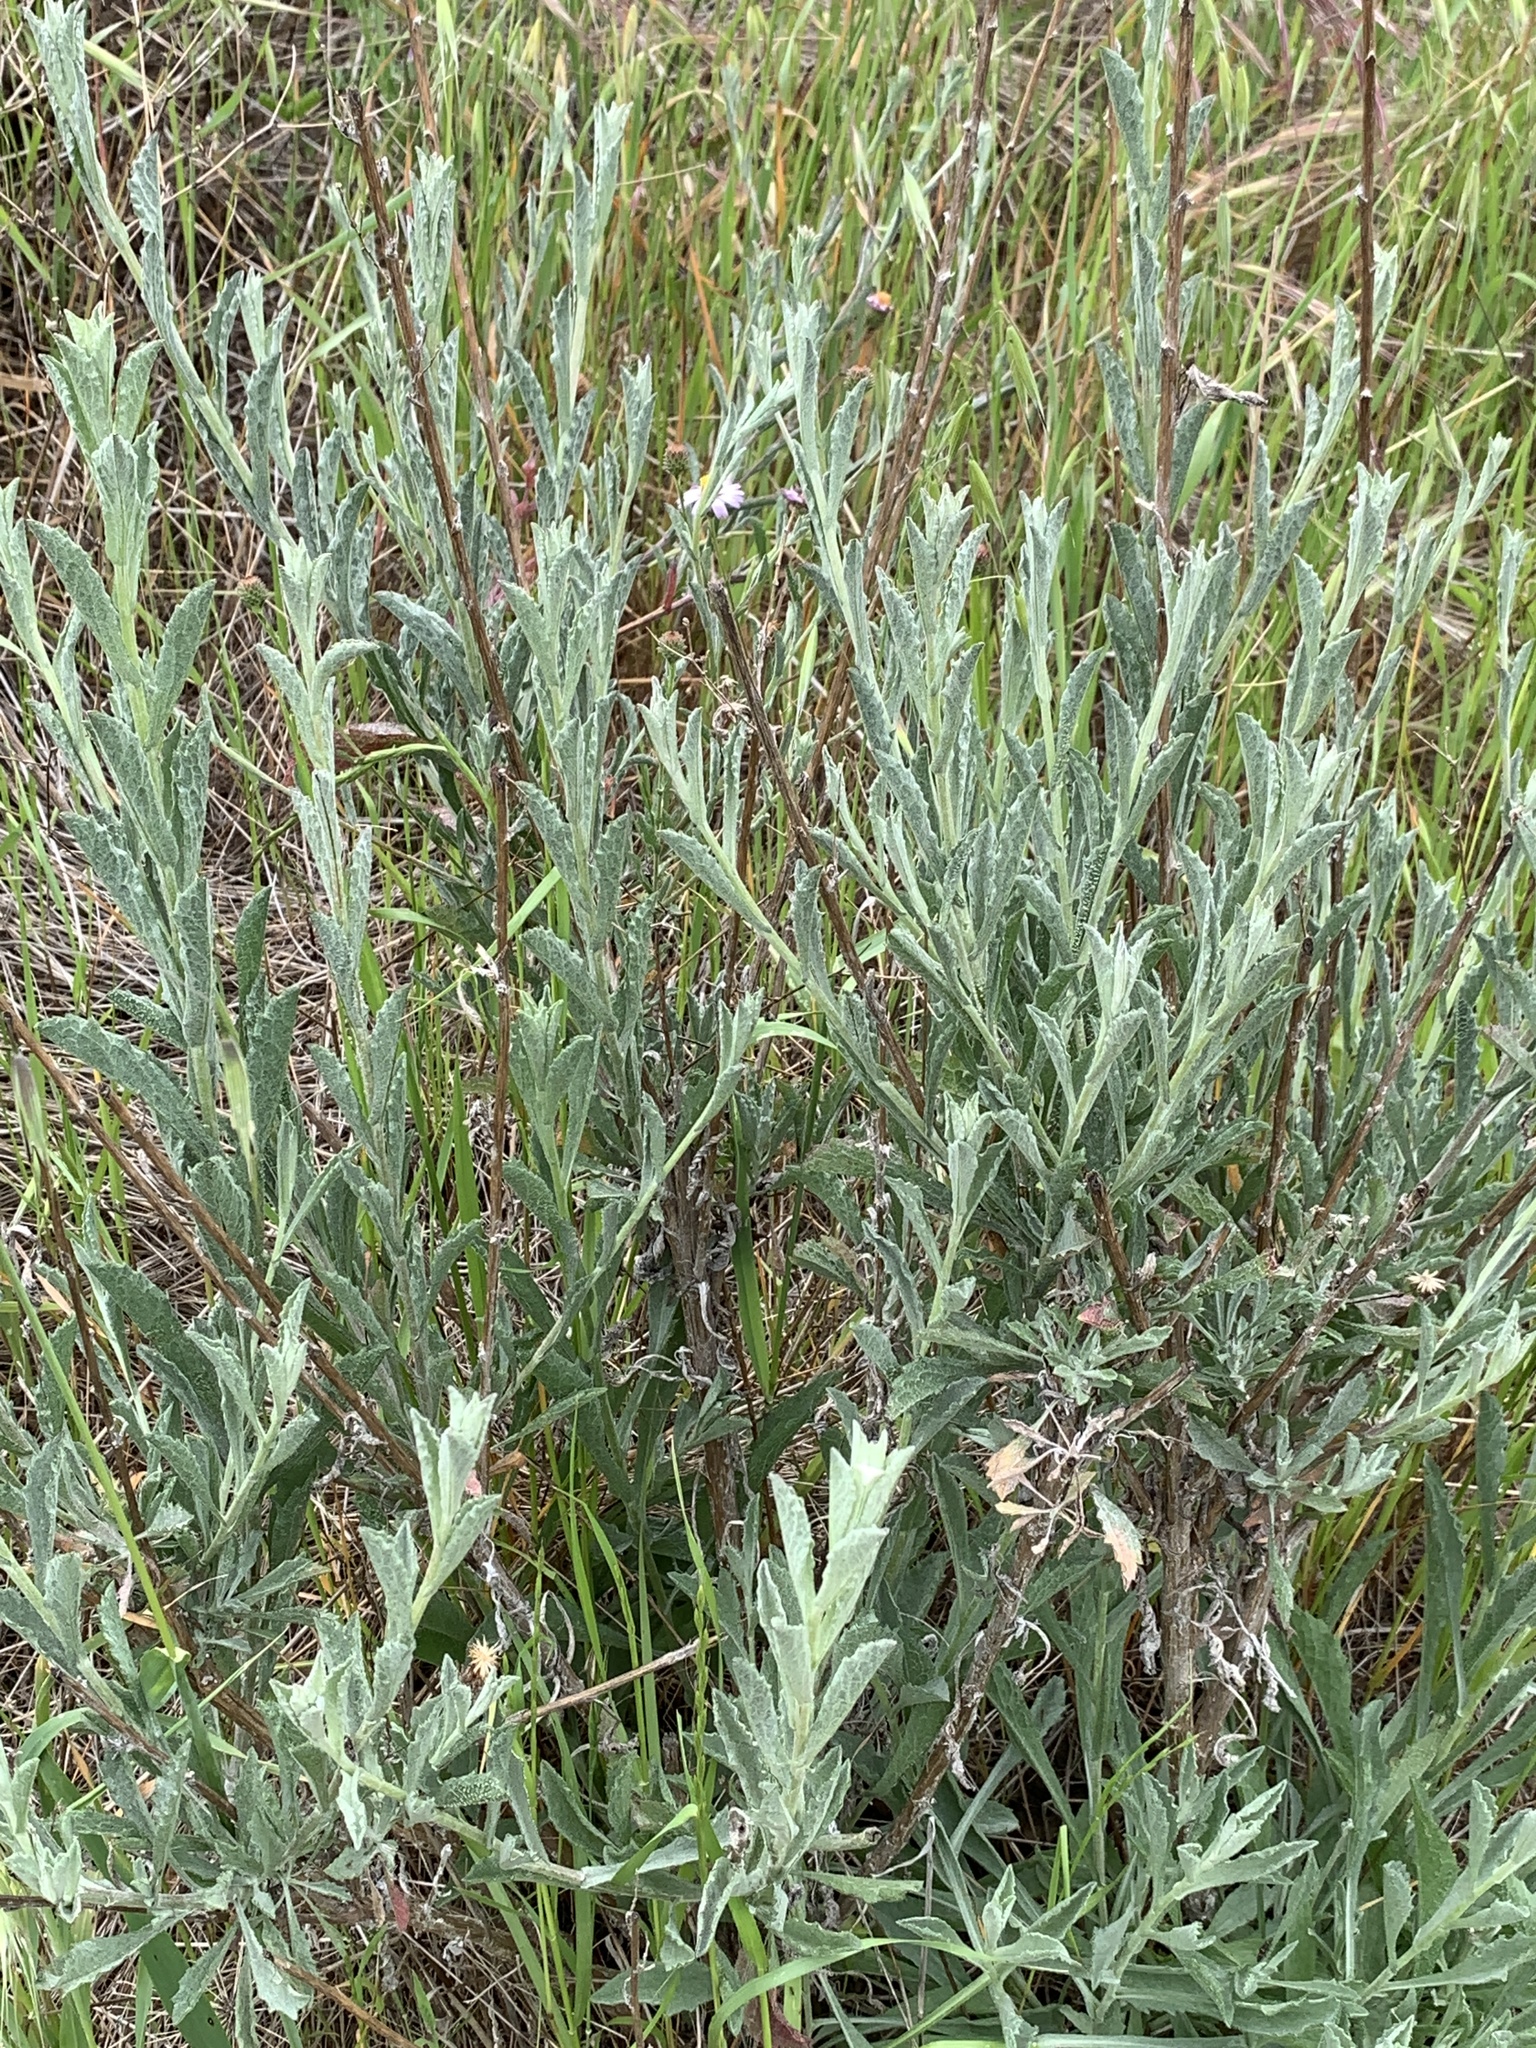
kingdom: Plantae
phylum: Tracheophyta
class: Magnoliopsida
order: Asterales
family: Asteraceae
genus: Corethrogyne
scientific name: Corethrogyne filaginifolia
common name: Sand-aster
